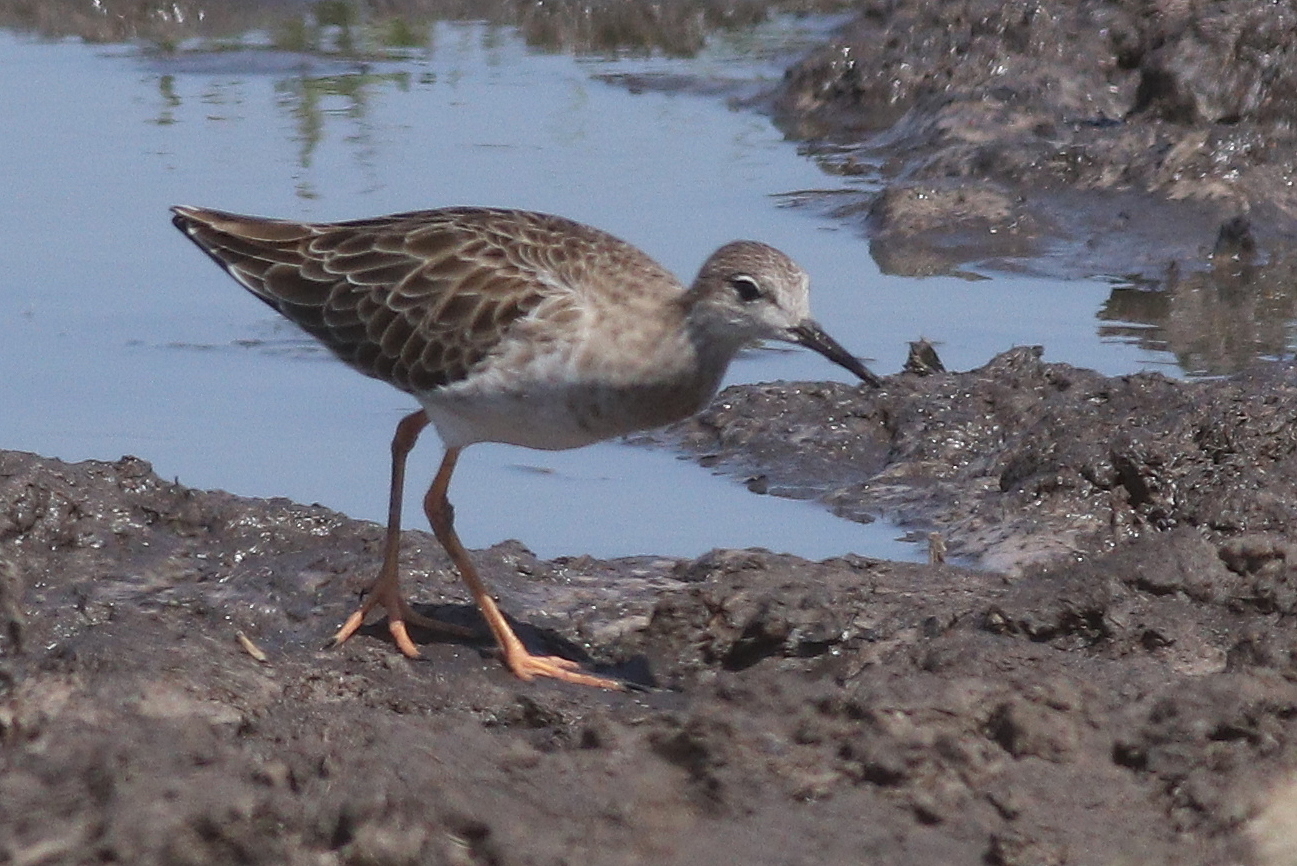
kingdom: Animalia
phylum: Chordata
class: Aves
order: Charadriiformes
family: Scolopacidae
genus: Calidris
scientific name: Calidris pugnax
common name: Ruff
